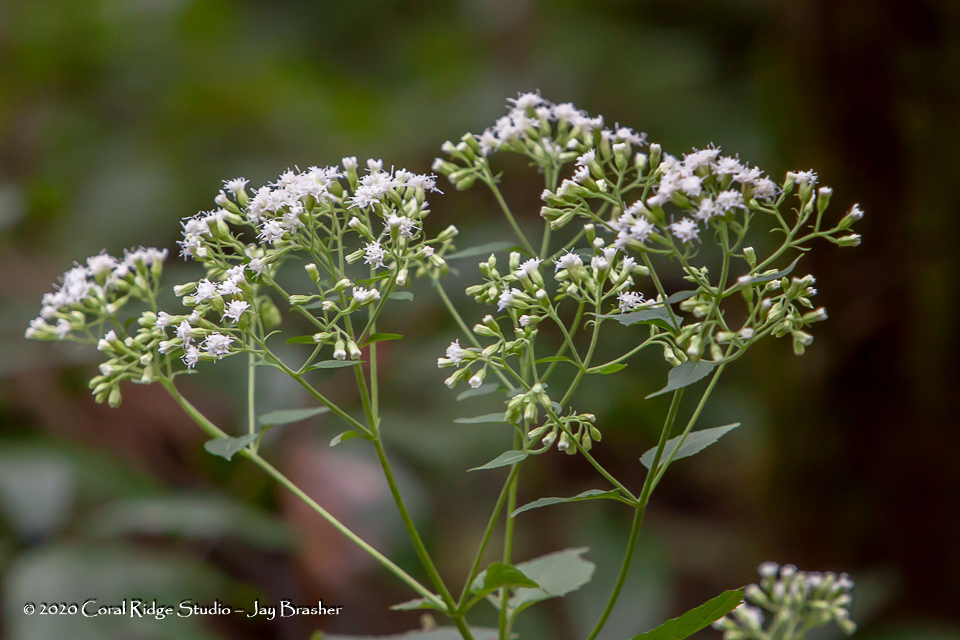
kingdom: Plantae
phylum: Tracheophyta
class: Magnoliopsida
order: Asterales
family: Asteraceae
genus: Ageratina
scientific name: Ageratina altissima
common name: White snakeroot
